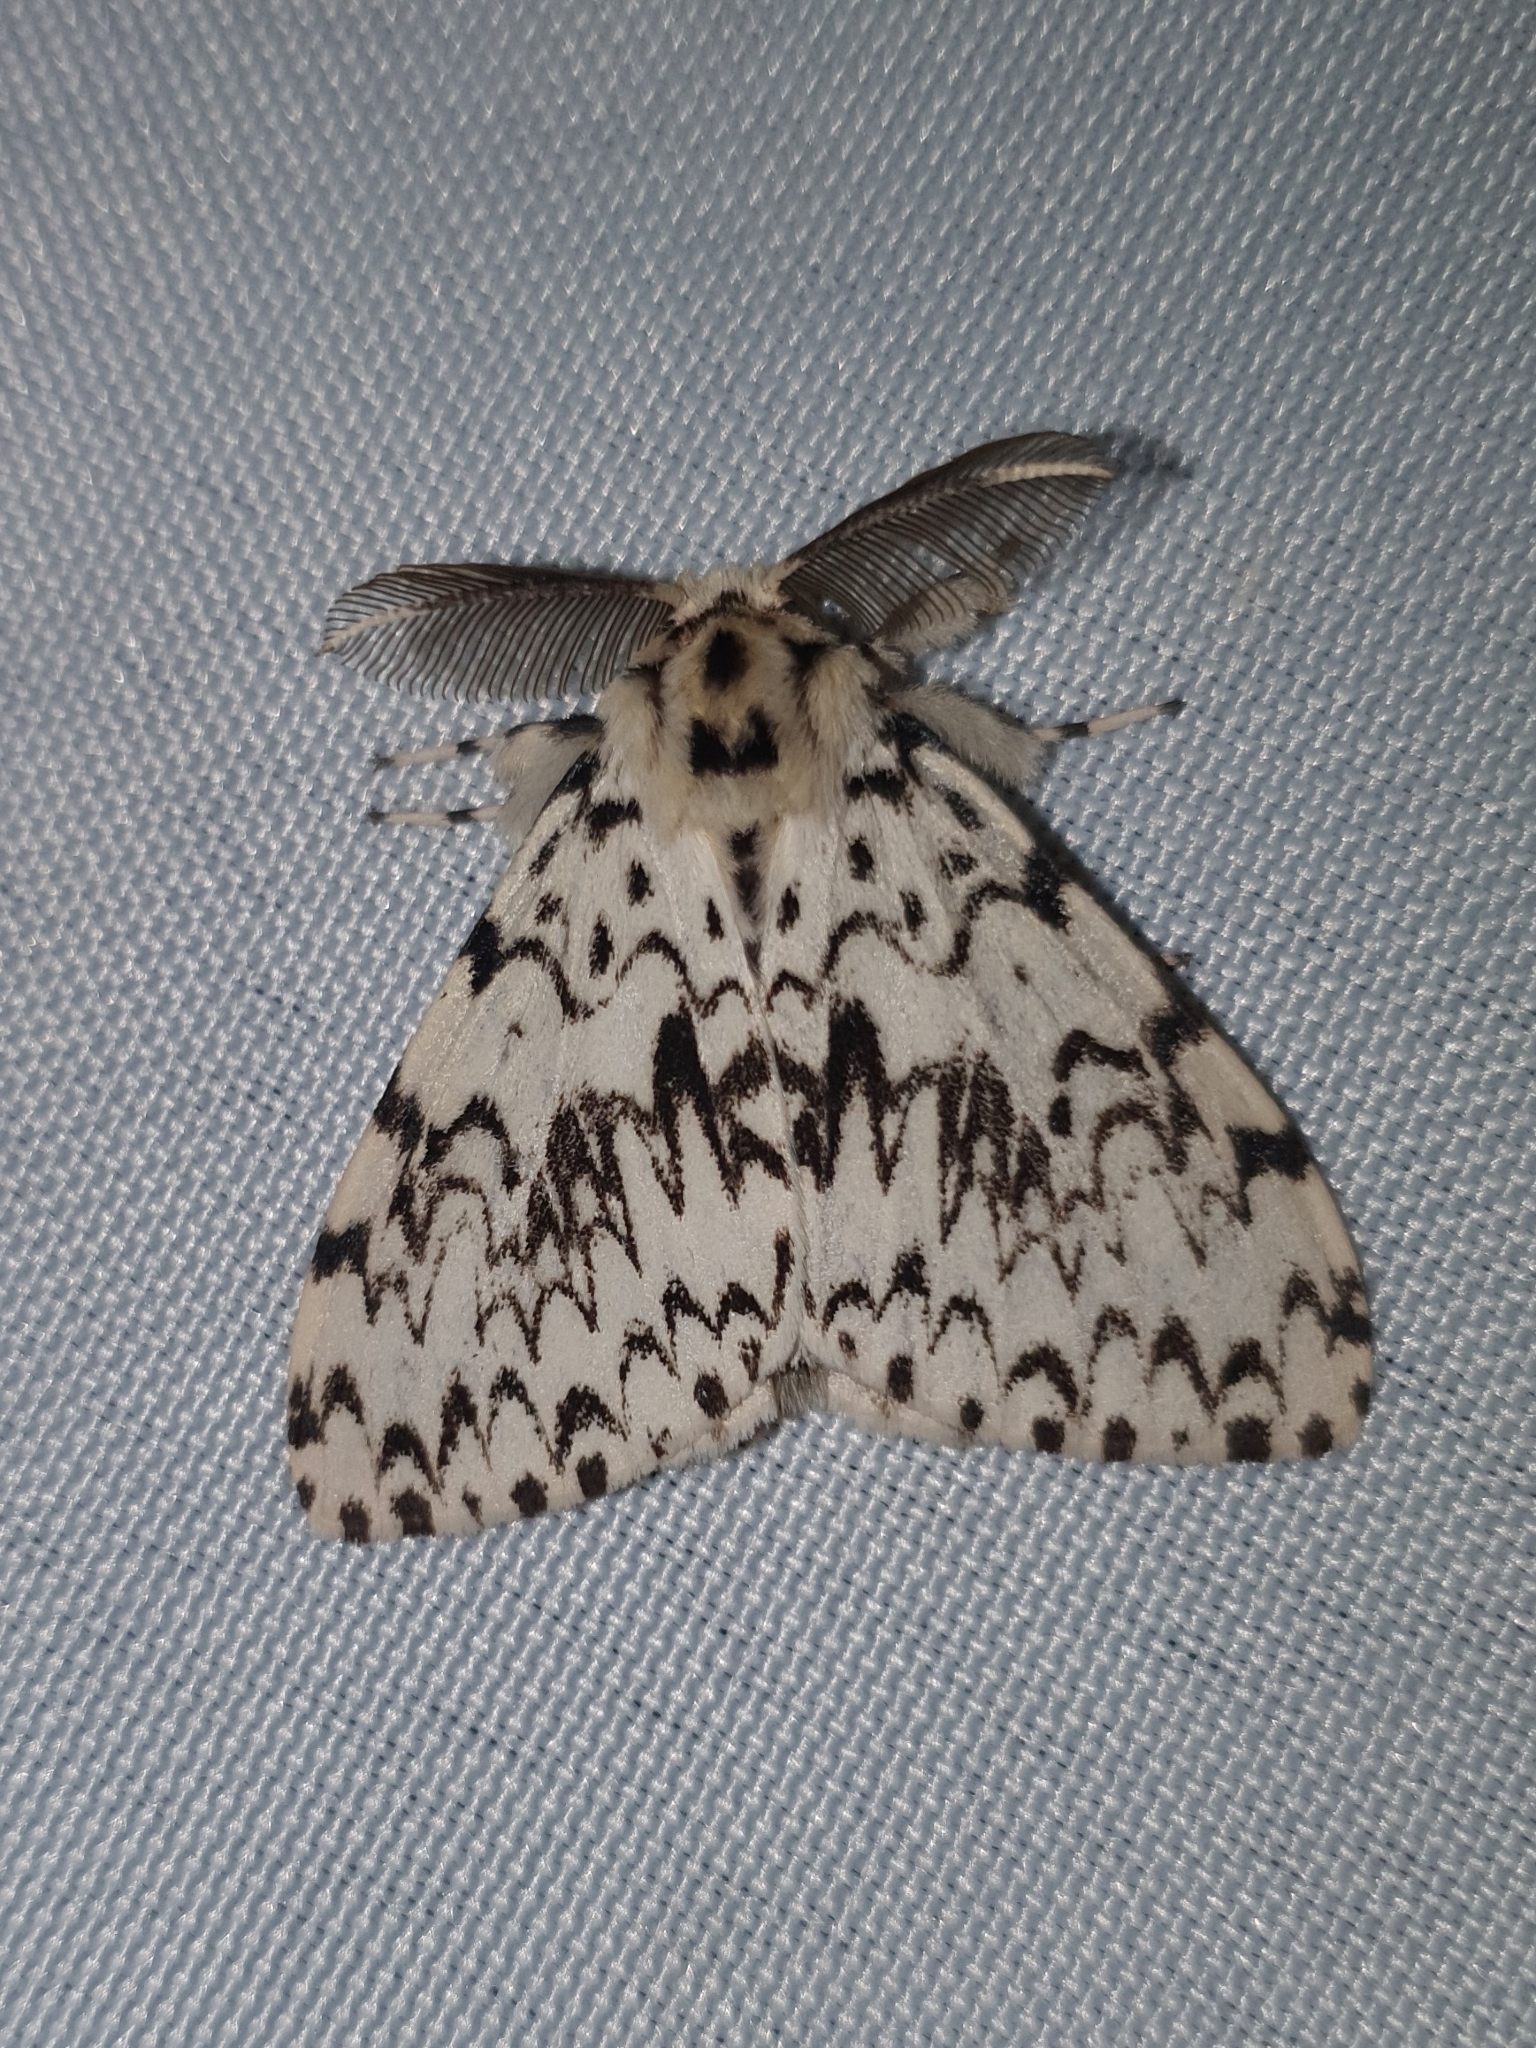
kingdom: Animalia
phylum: Arthropoda
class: Insecta
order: Lepidoptera
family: Erebidae
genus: Lymantria
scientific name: Lymantria monacha
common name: Black arches
